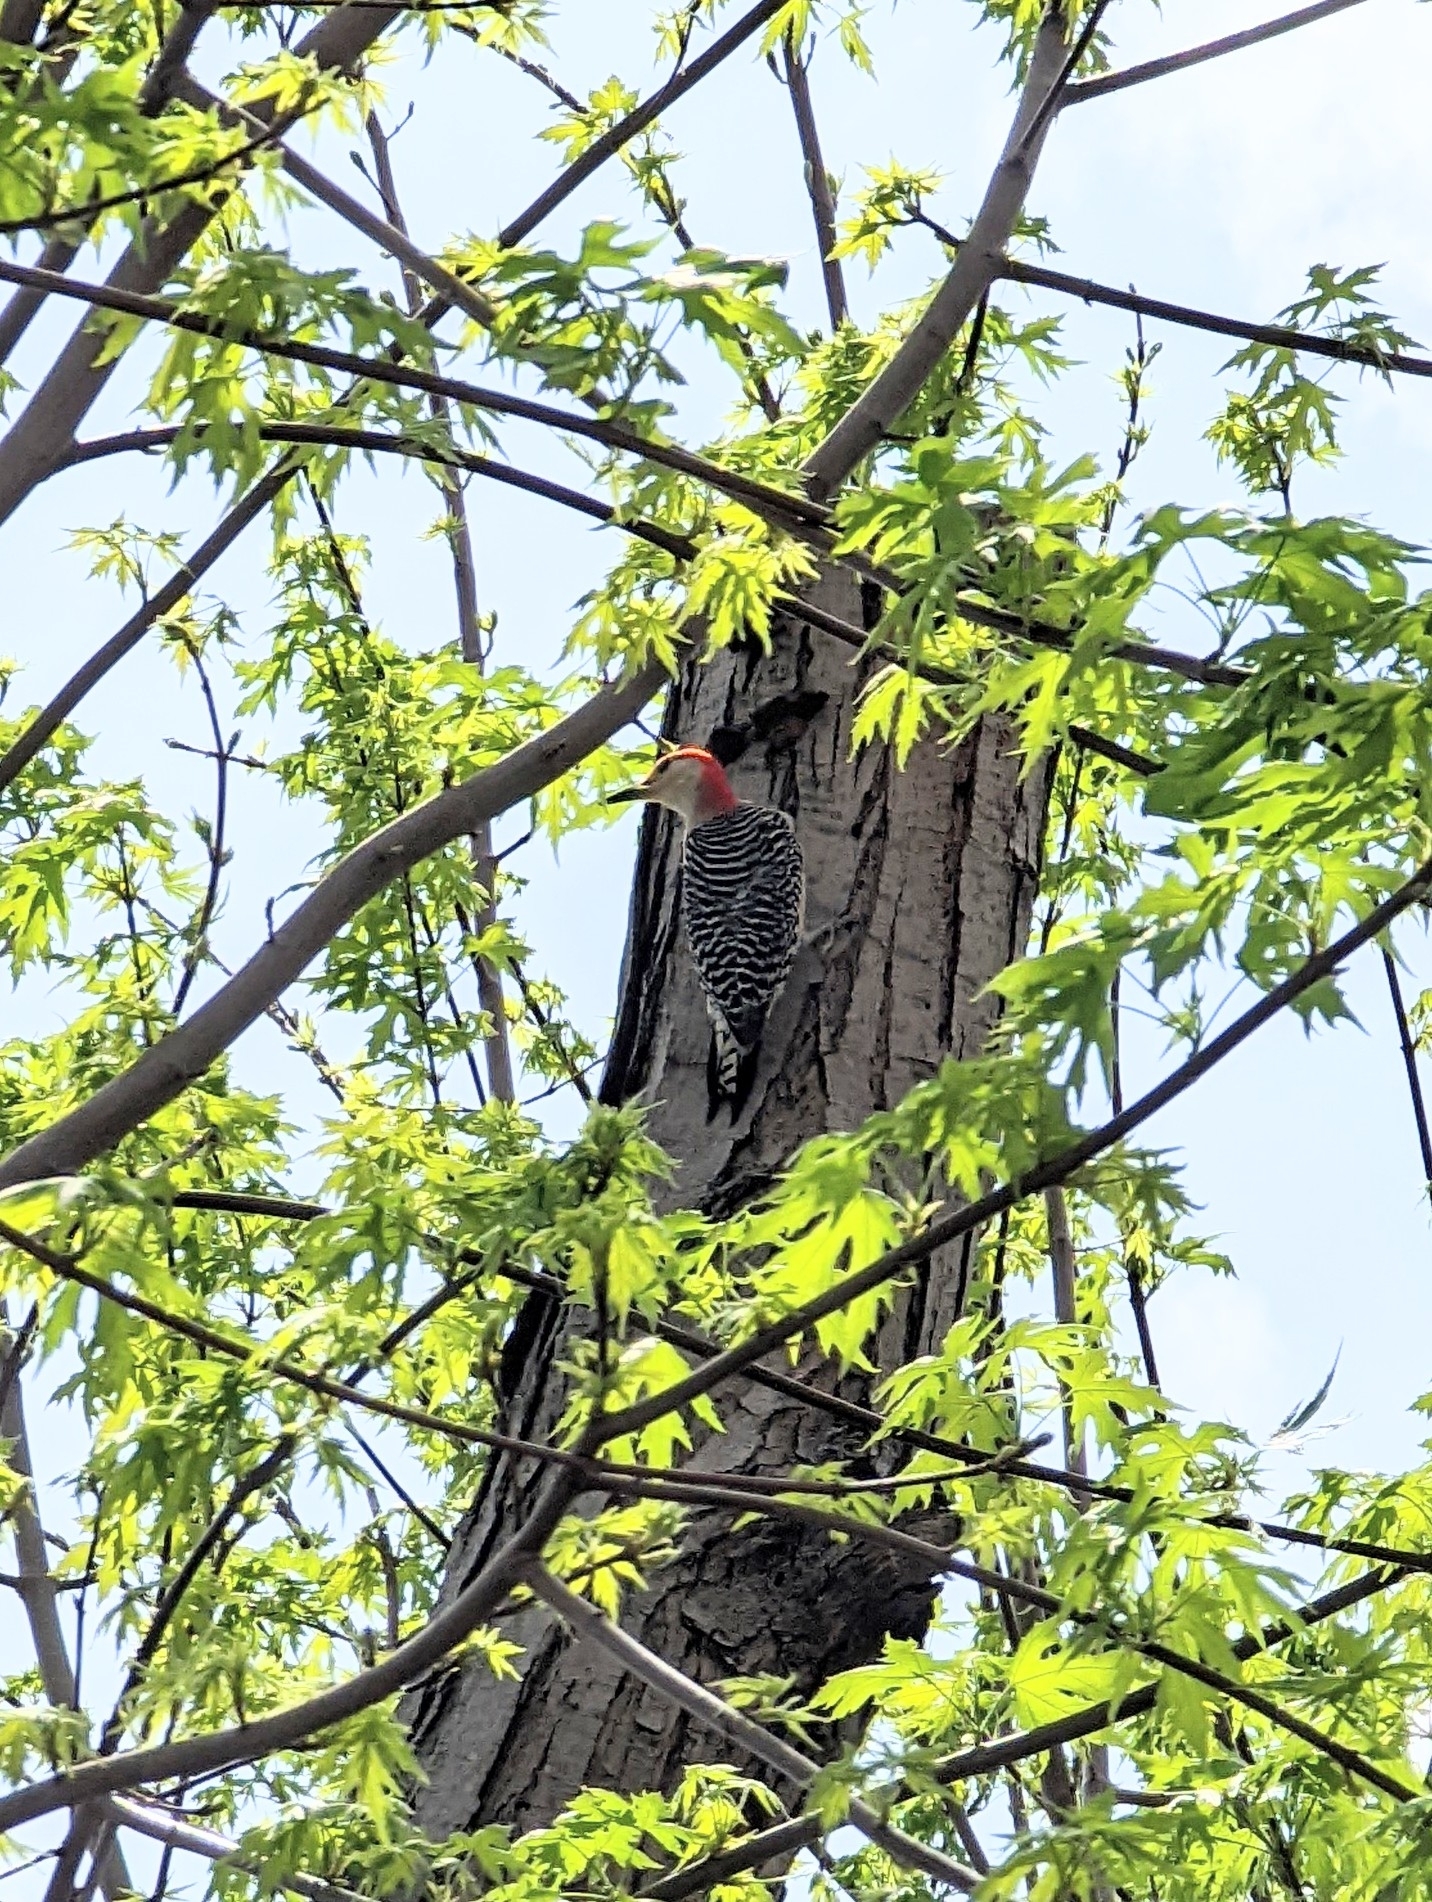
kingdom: Animalia
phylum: Chordata
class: Aves
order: Piciformes
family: Picidae
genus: Melanerpes
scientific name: Melanerpes carolinus
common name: Red-bellied woodpecker
